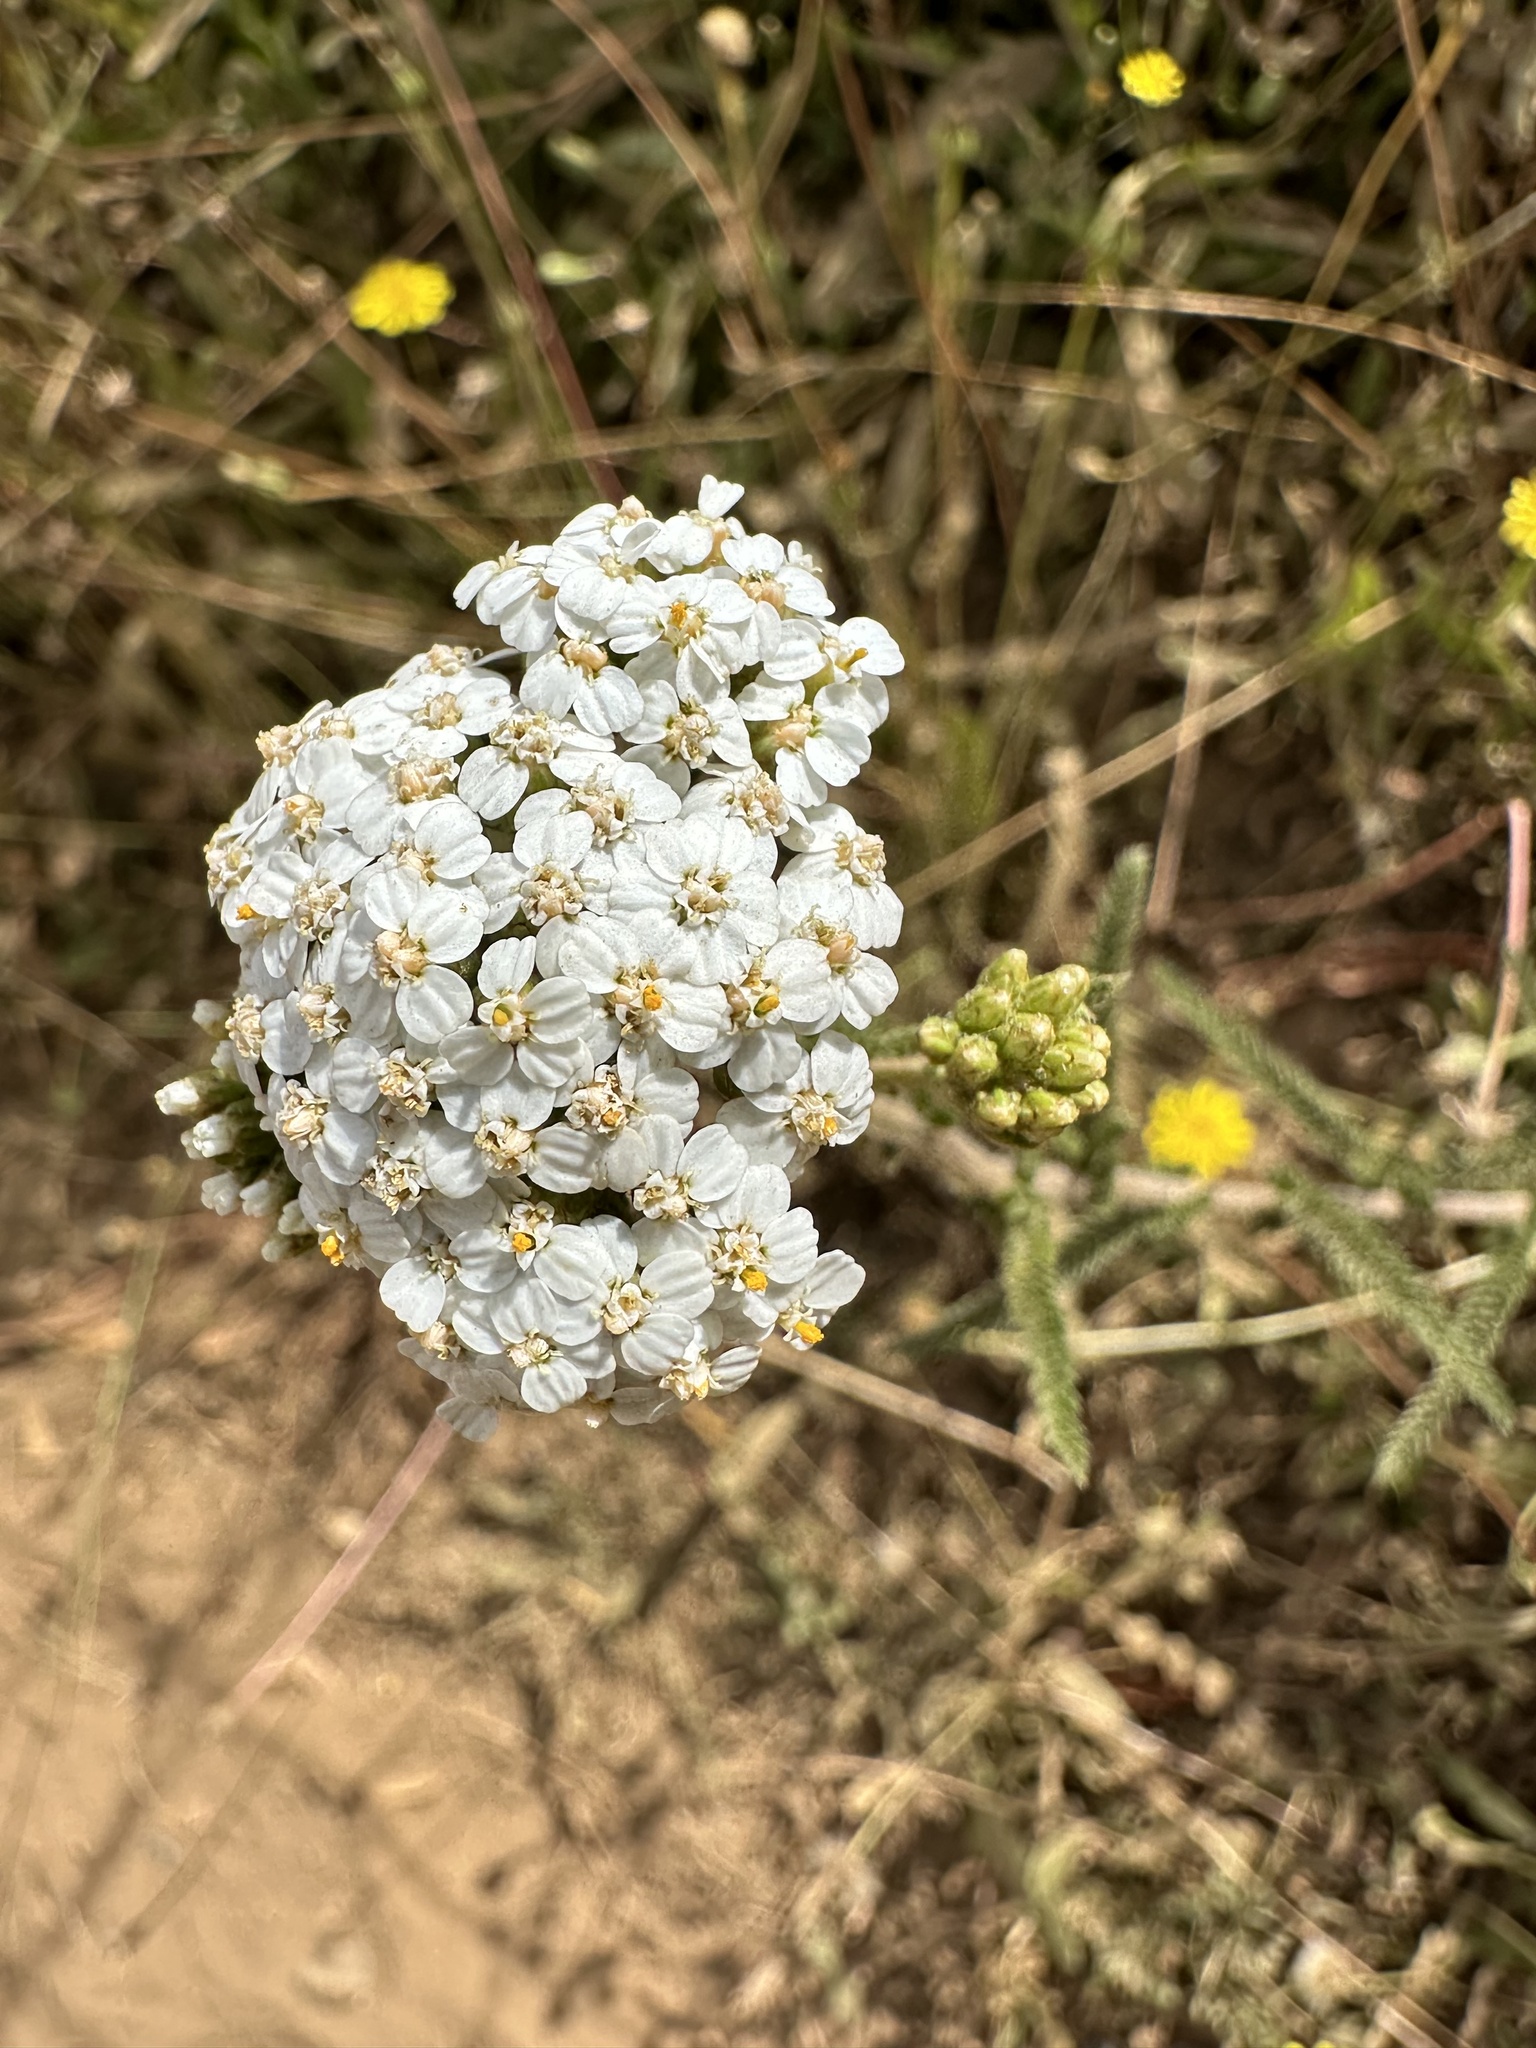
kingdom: Plantae
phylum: Tracheophyta
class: Magnoliopsida
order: Asterales
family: Asteraceae
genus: Achillea
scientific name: Achillea millefolium
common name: Yarrow
